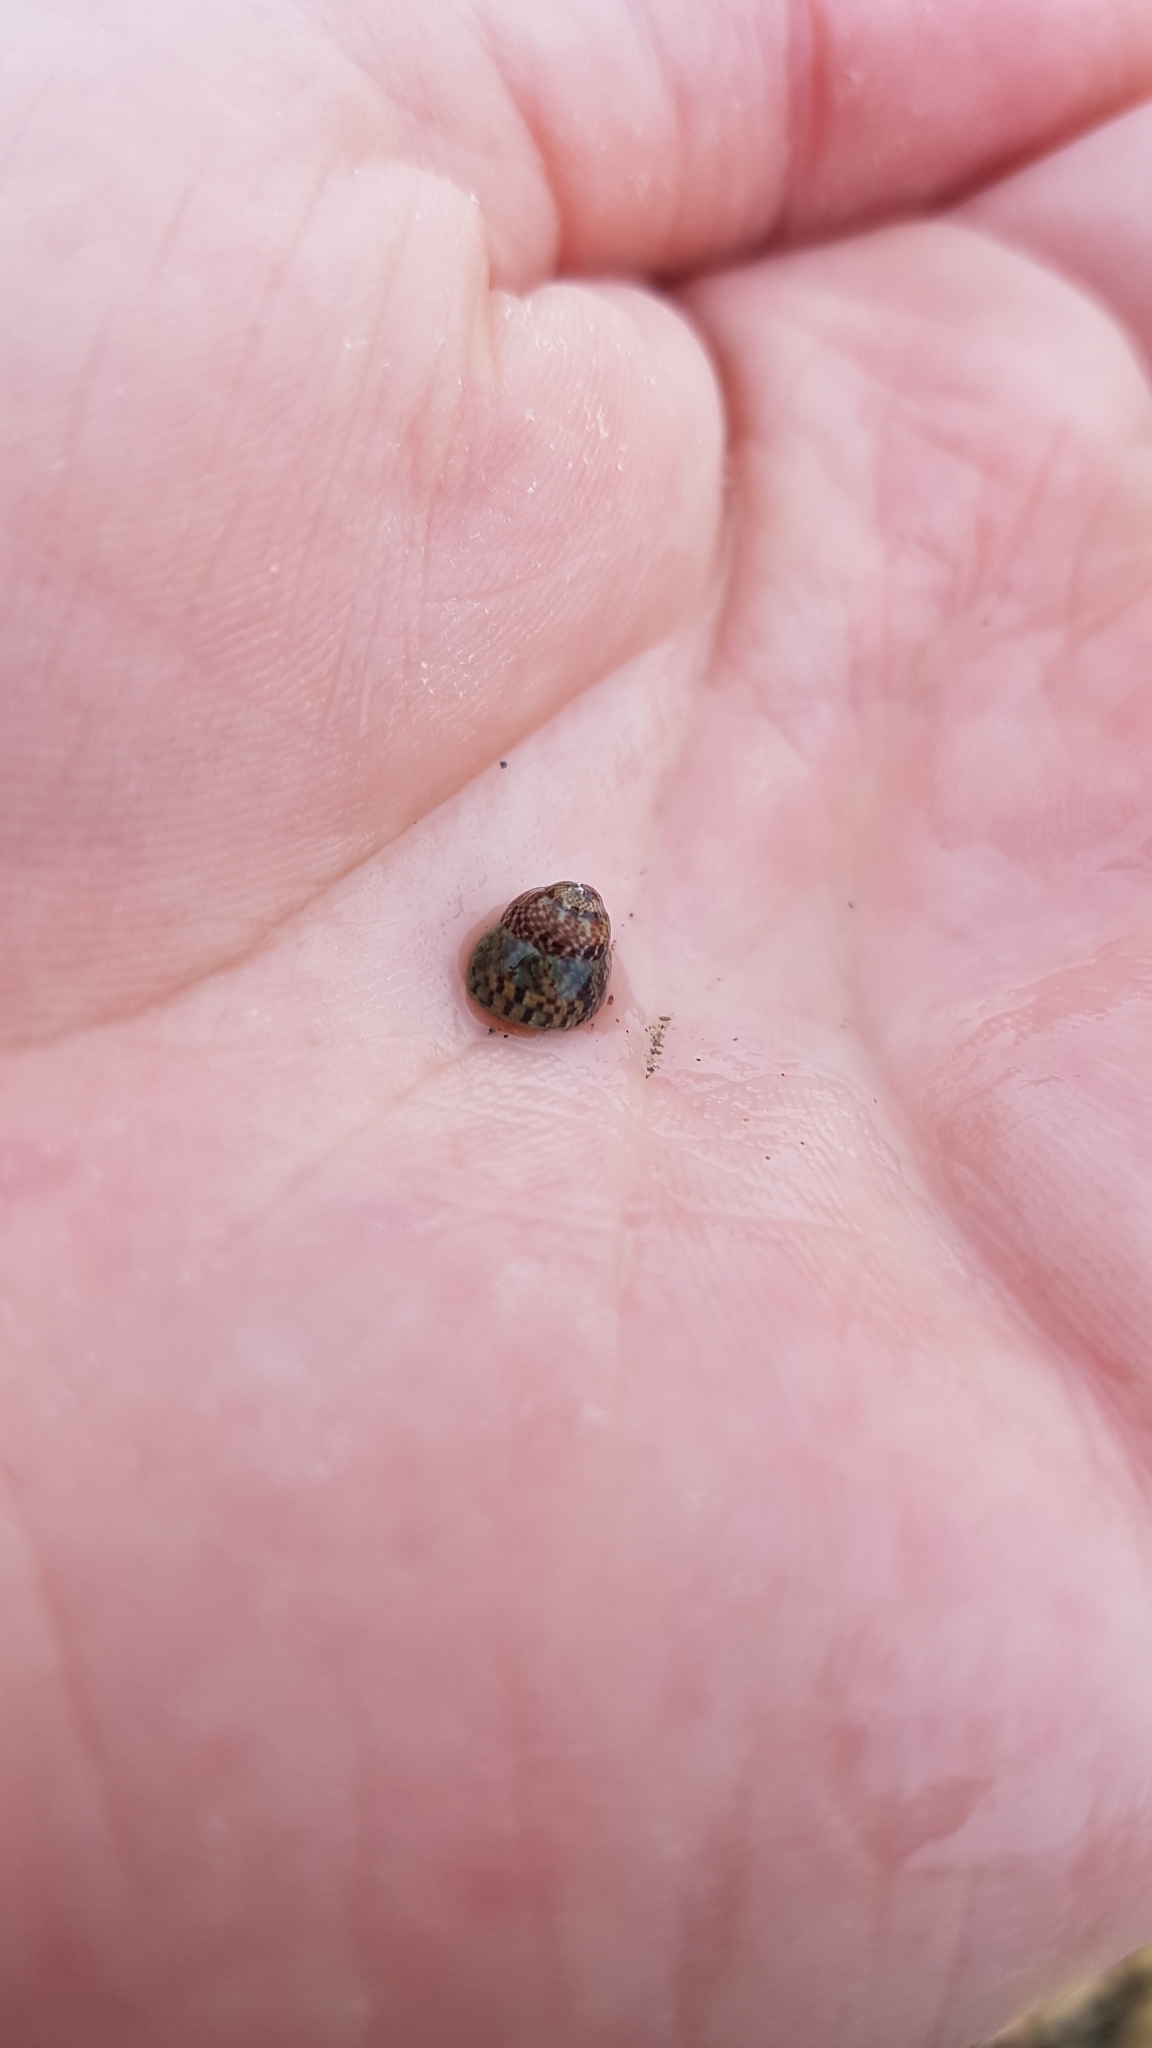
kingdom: Animalia
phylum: Mollusca
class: Gastropoda
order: Trochida
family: Trochidae
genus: Micrelenchus
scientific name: Micrelenchus tessellatus
